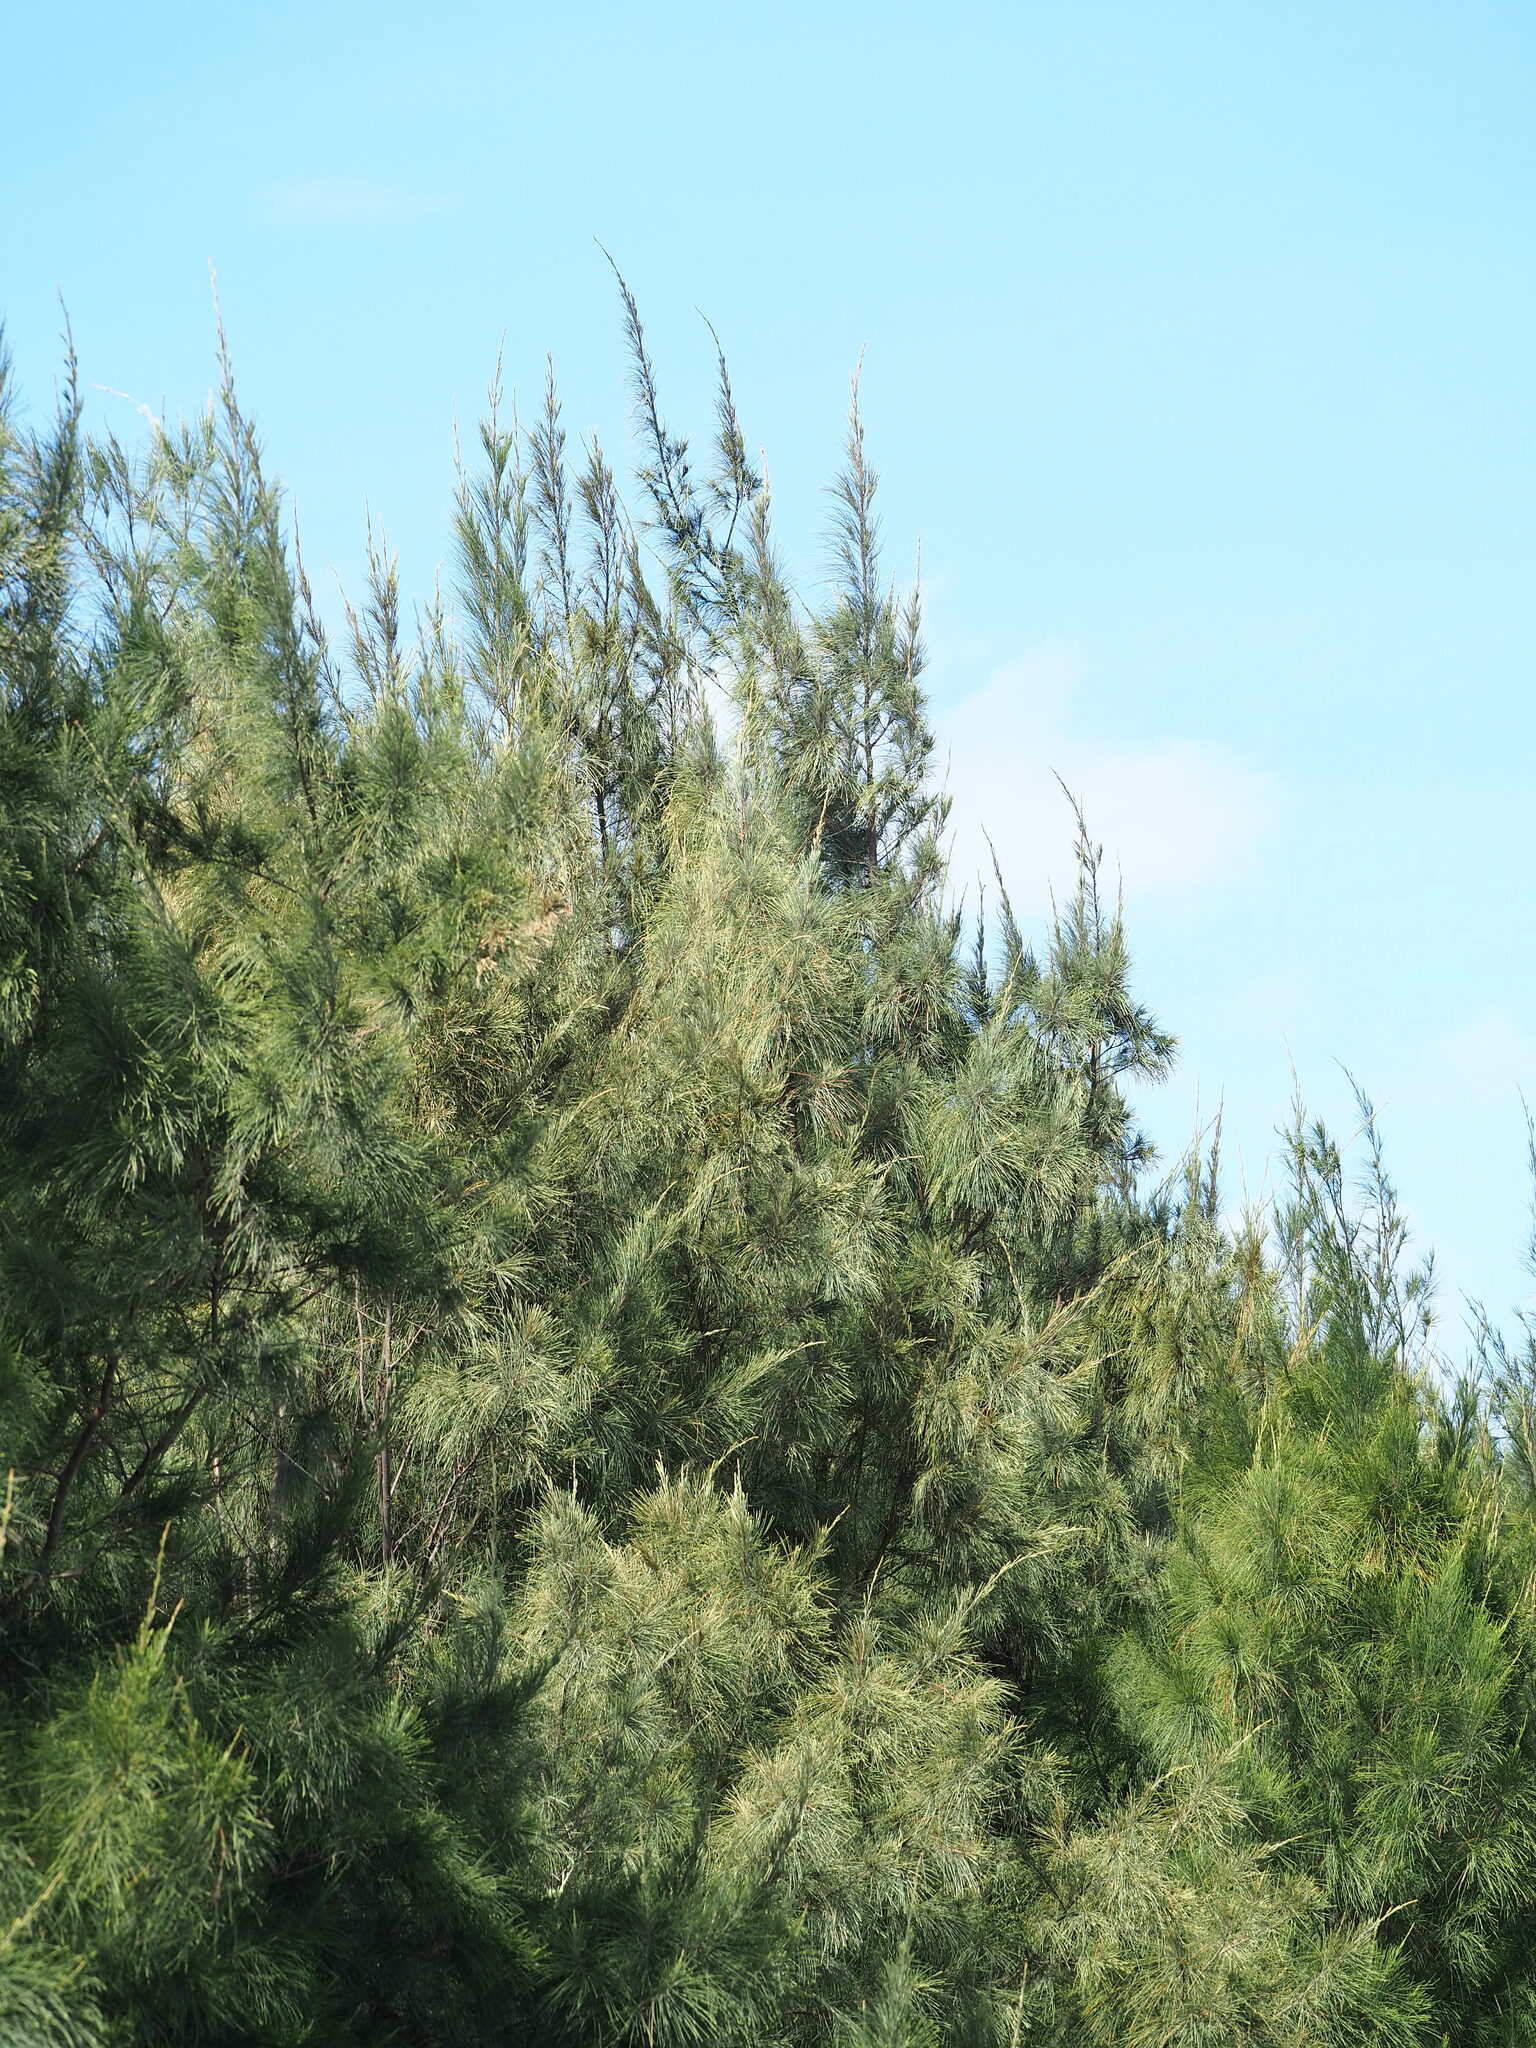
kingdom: Plantae
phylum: Tracheophyta
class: Magnoliopsida
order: Fagales
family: Casuarinaceae
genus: Casuarina
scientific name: Casuarina equisetifolia
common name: Beach sheoak
